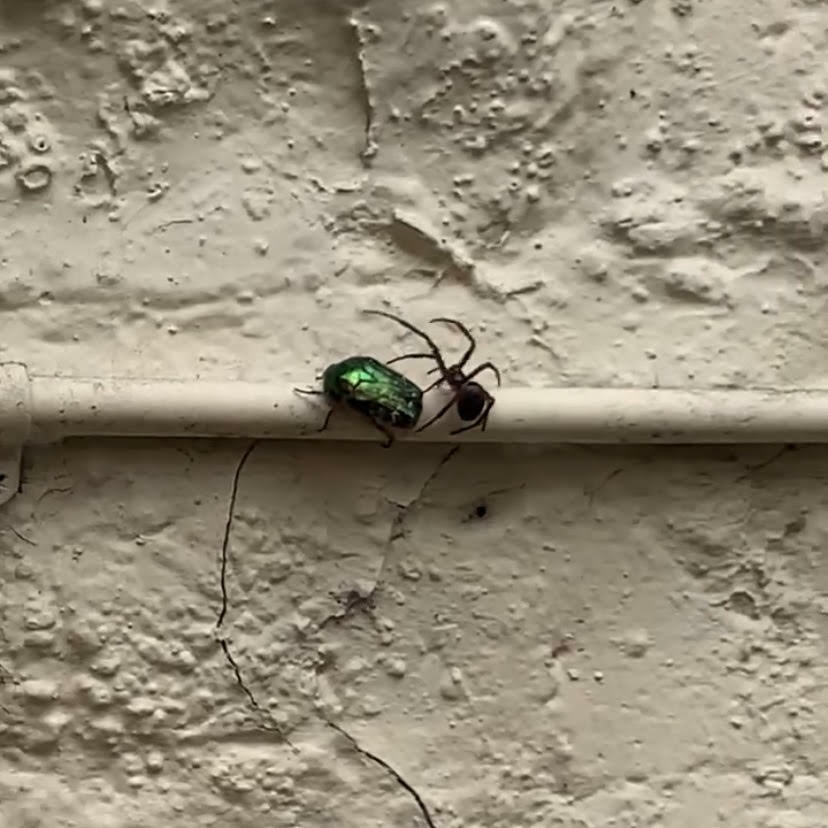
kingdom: Animalia
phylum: Arthropoda
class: Insecta
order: Coleoptera
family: Scarabaeidae
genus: Cetonia
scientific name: Cetonia aurata
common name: Rose chafer
